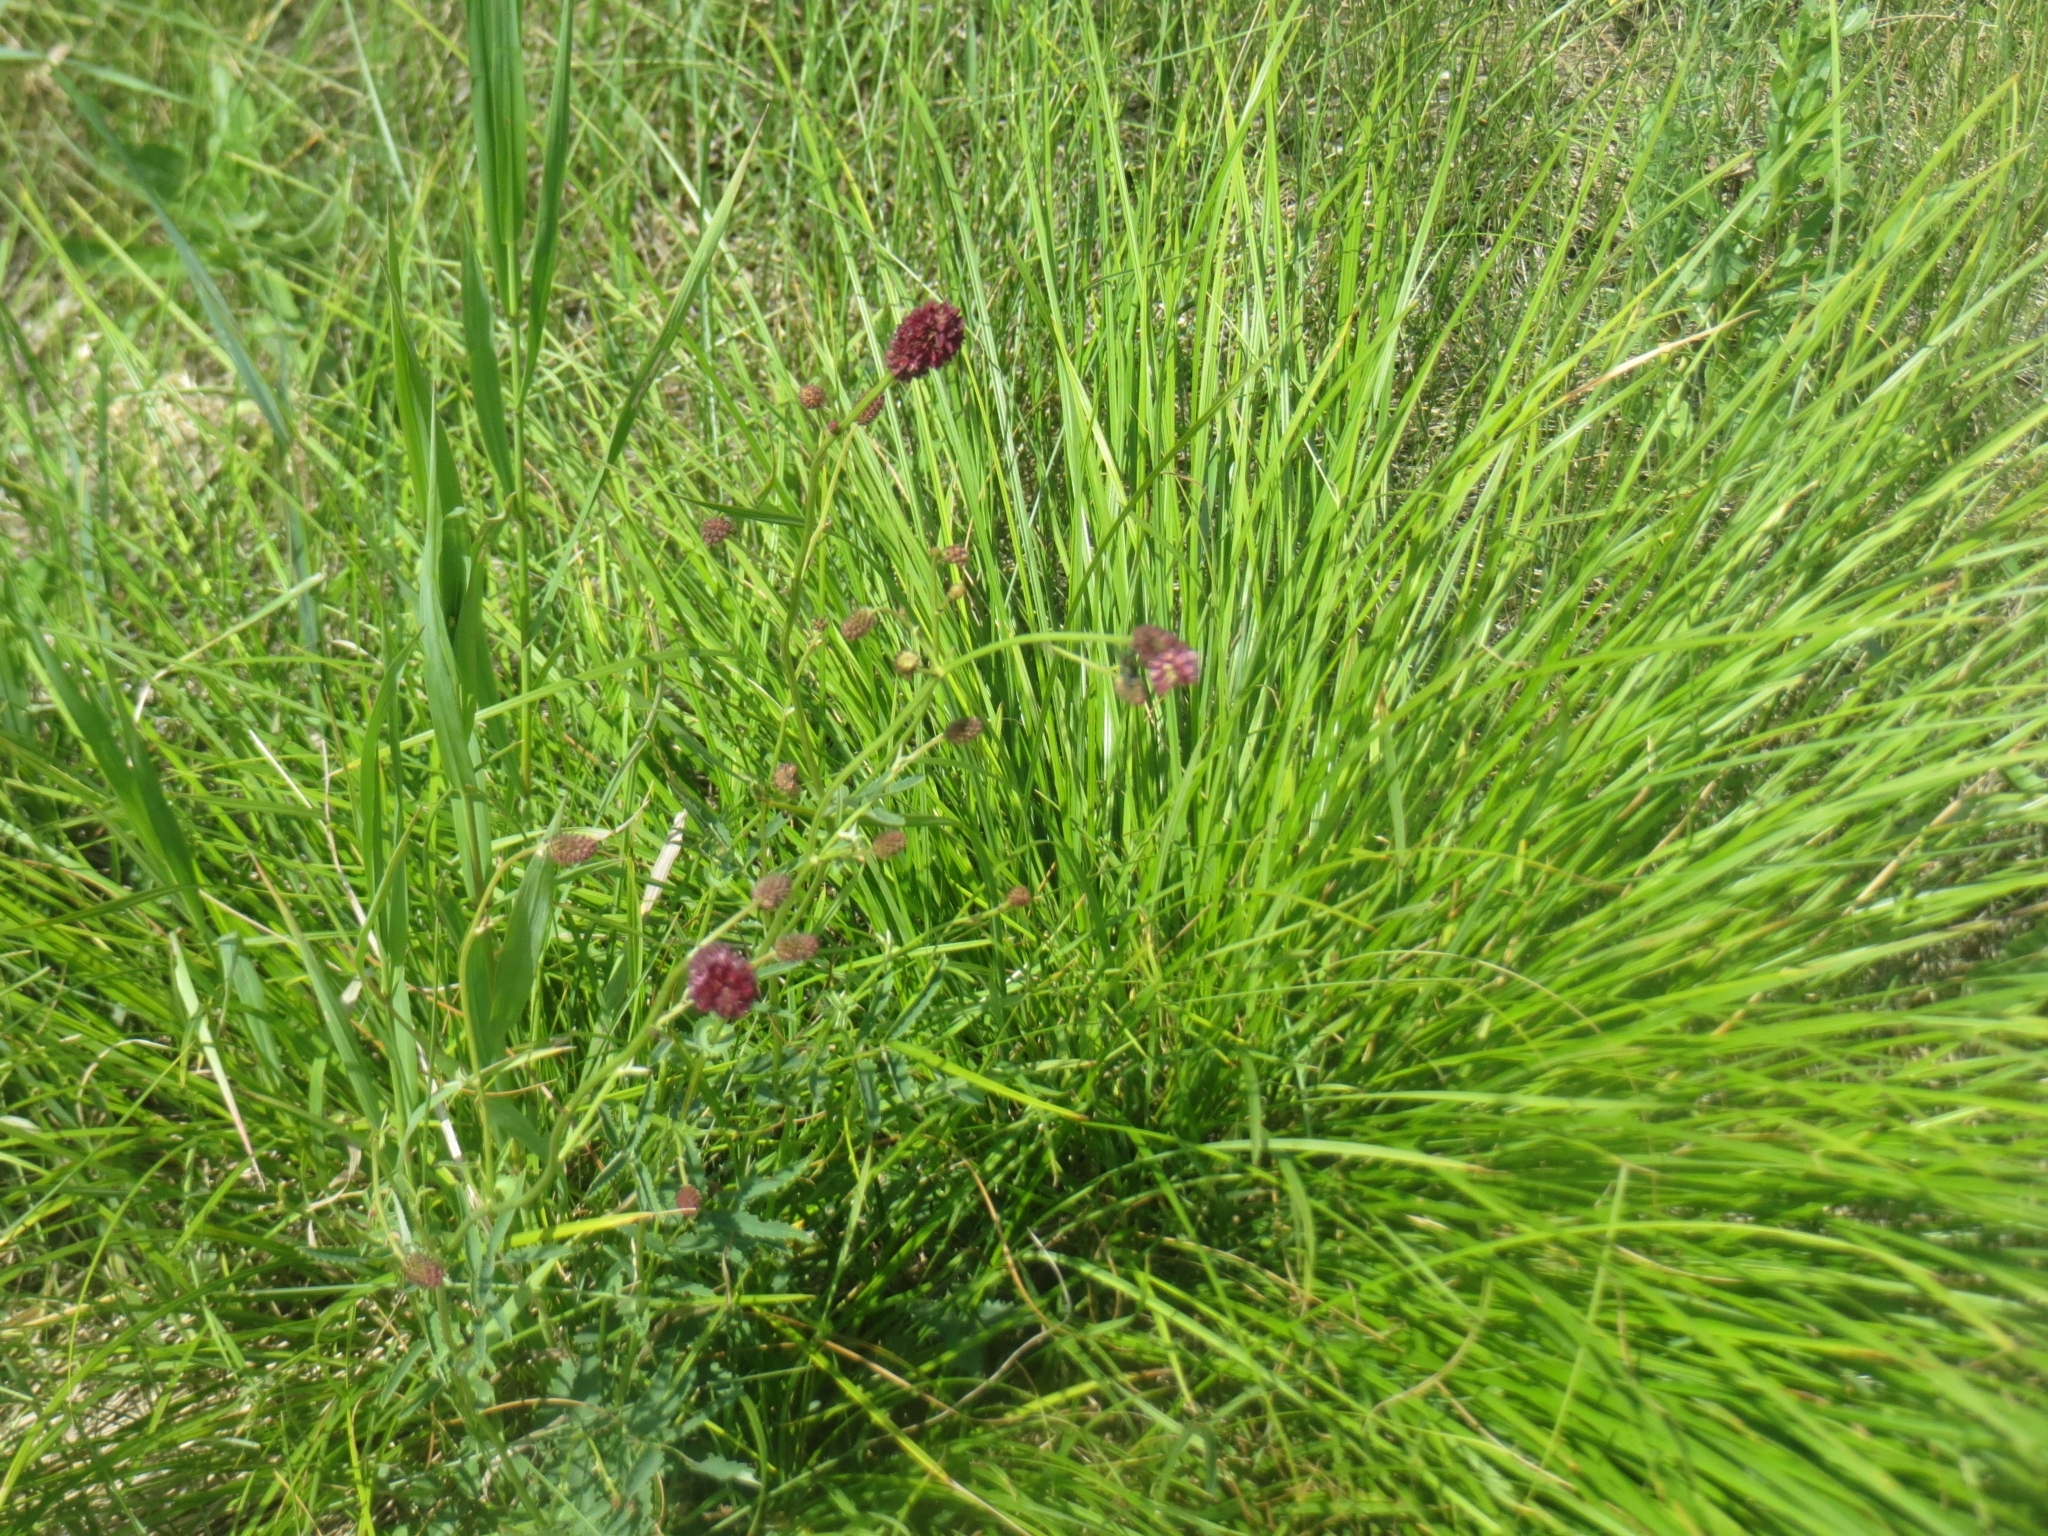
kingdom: Plantae
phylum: Tracheophyta
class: Magnoliopsida
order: Rosales
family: Rosaceae
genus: Sanguisorba
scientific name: Sanguisorba officinalis
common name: Great burnet
